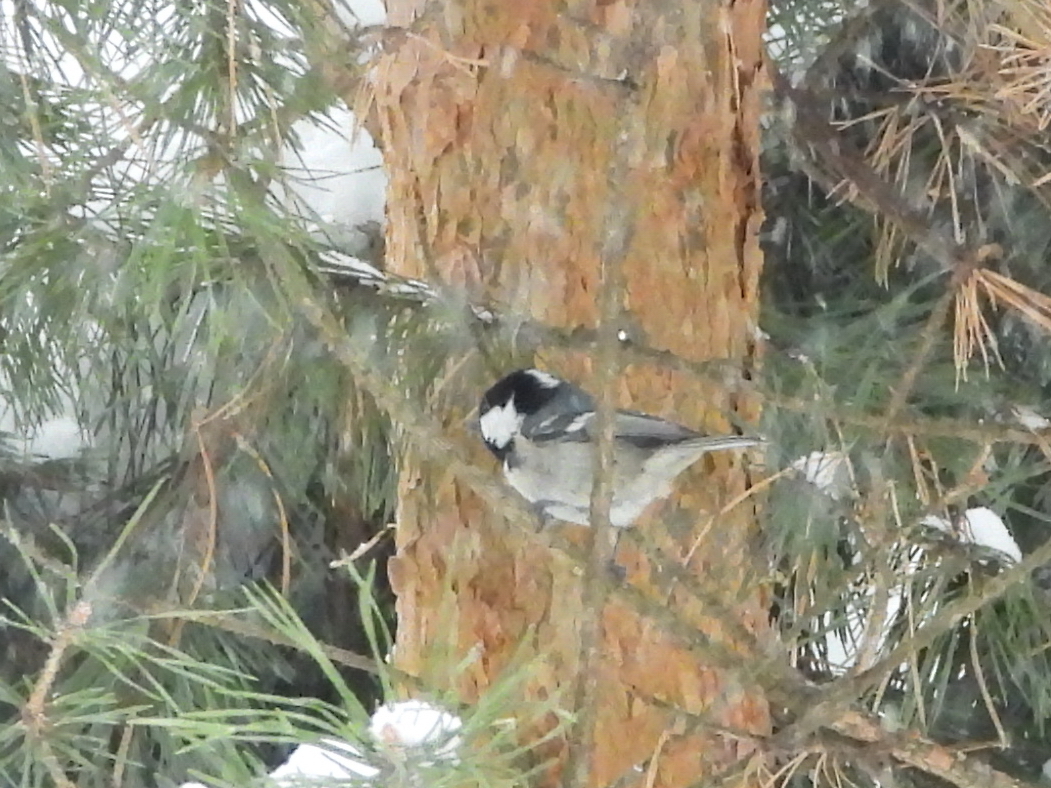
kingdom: Animalia
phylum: Chordata
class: Aves
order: Passeriformes
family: Paridae
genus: Periparus
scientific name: Periparus ater
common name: Coal tit
